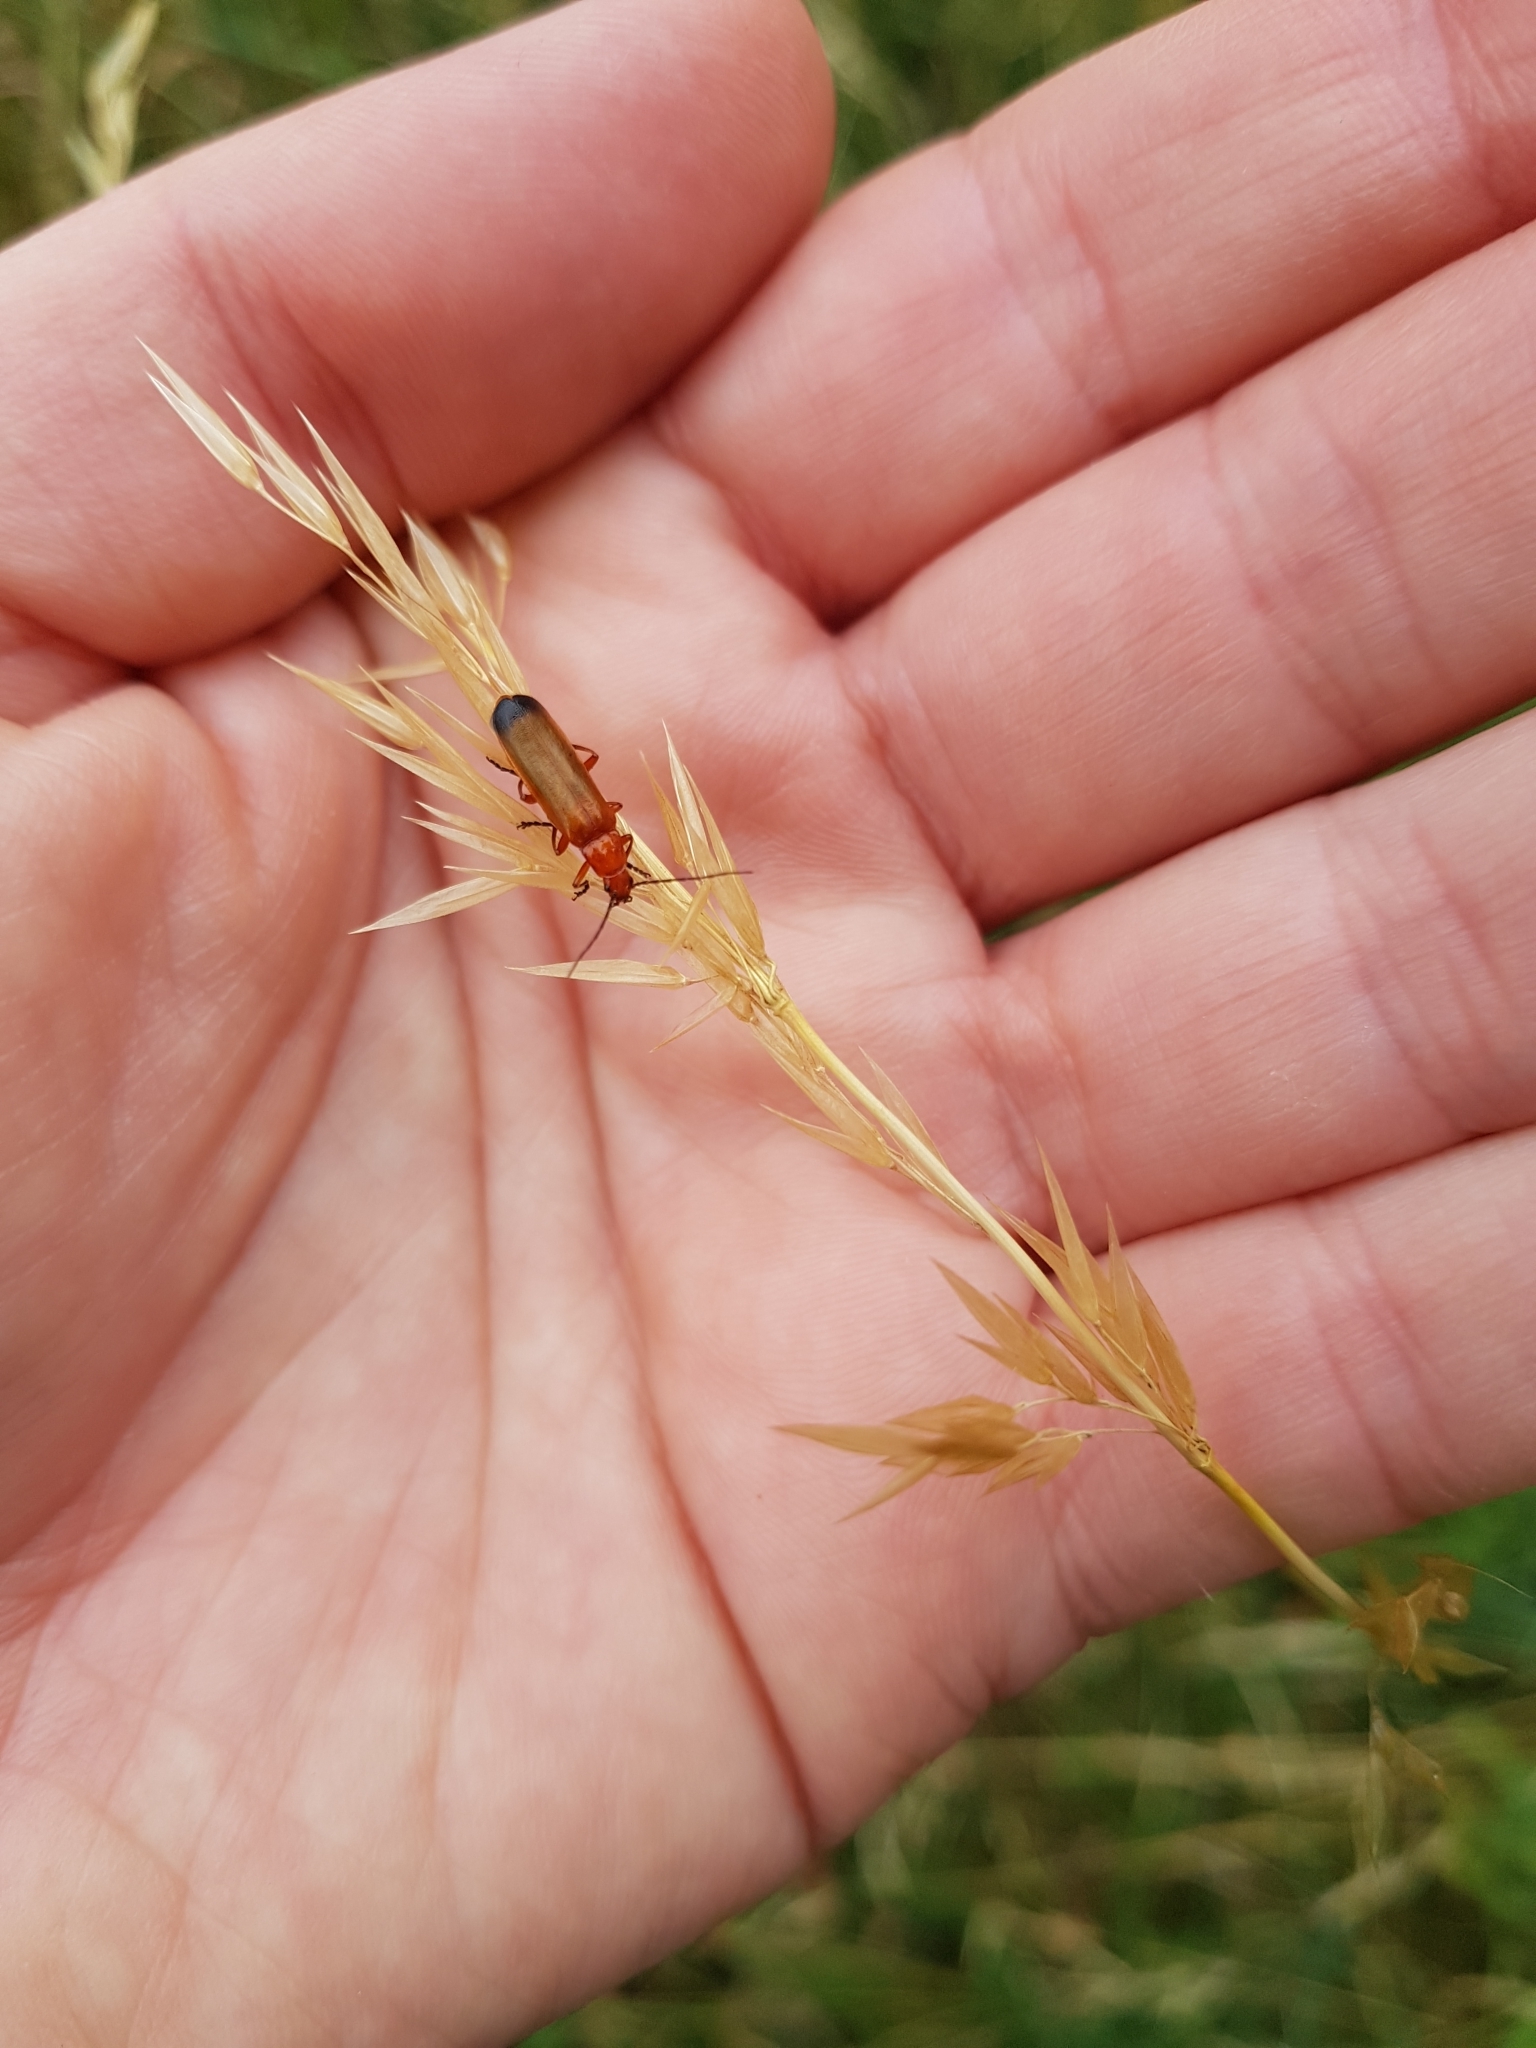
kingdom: Animalia
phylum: Arthropoda
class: Insecta
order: Coleoptera
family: Cantharidae
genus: Rhagonycha
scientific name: Rhagonycha fulva
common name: Common red soldier beetle
